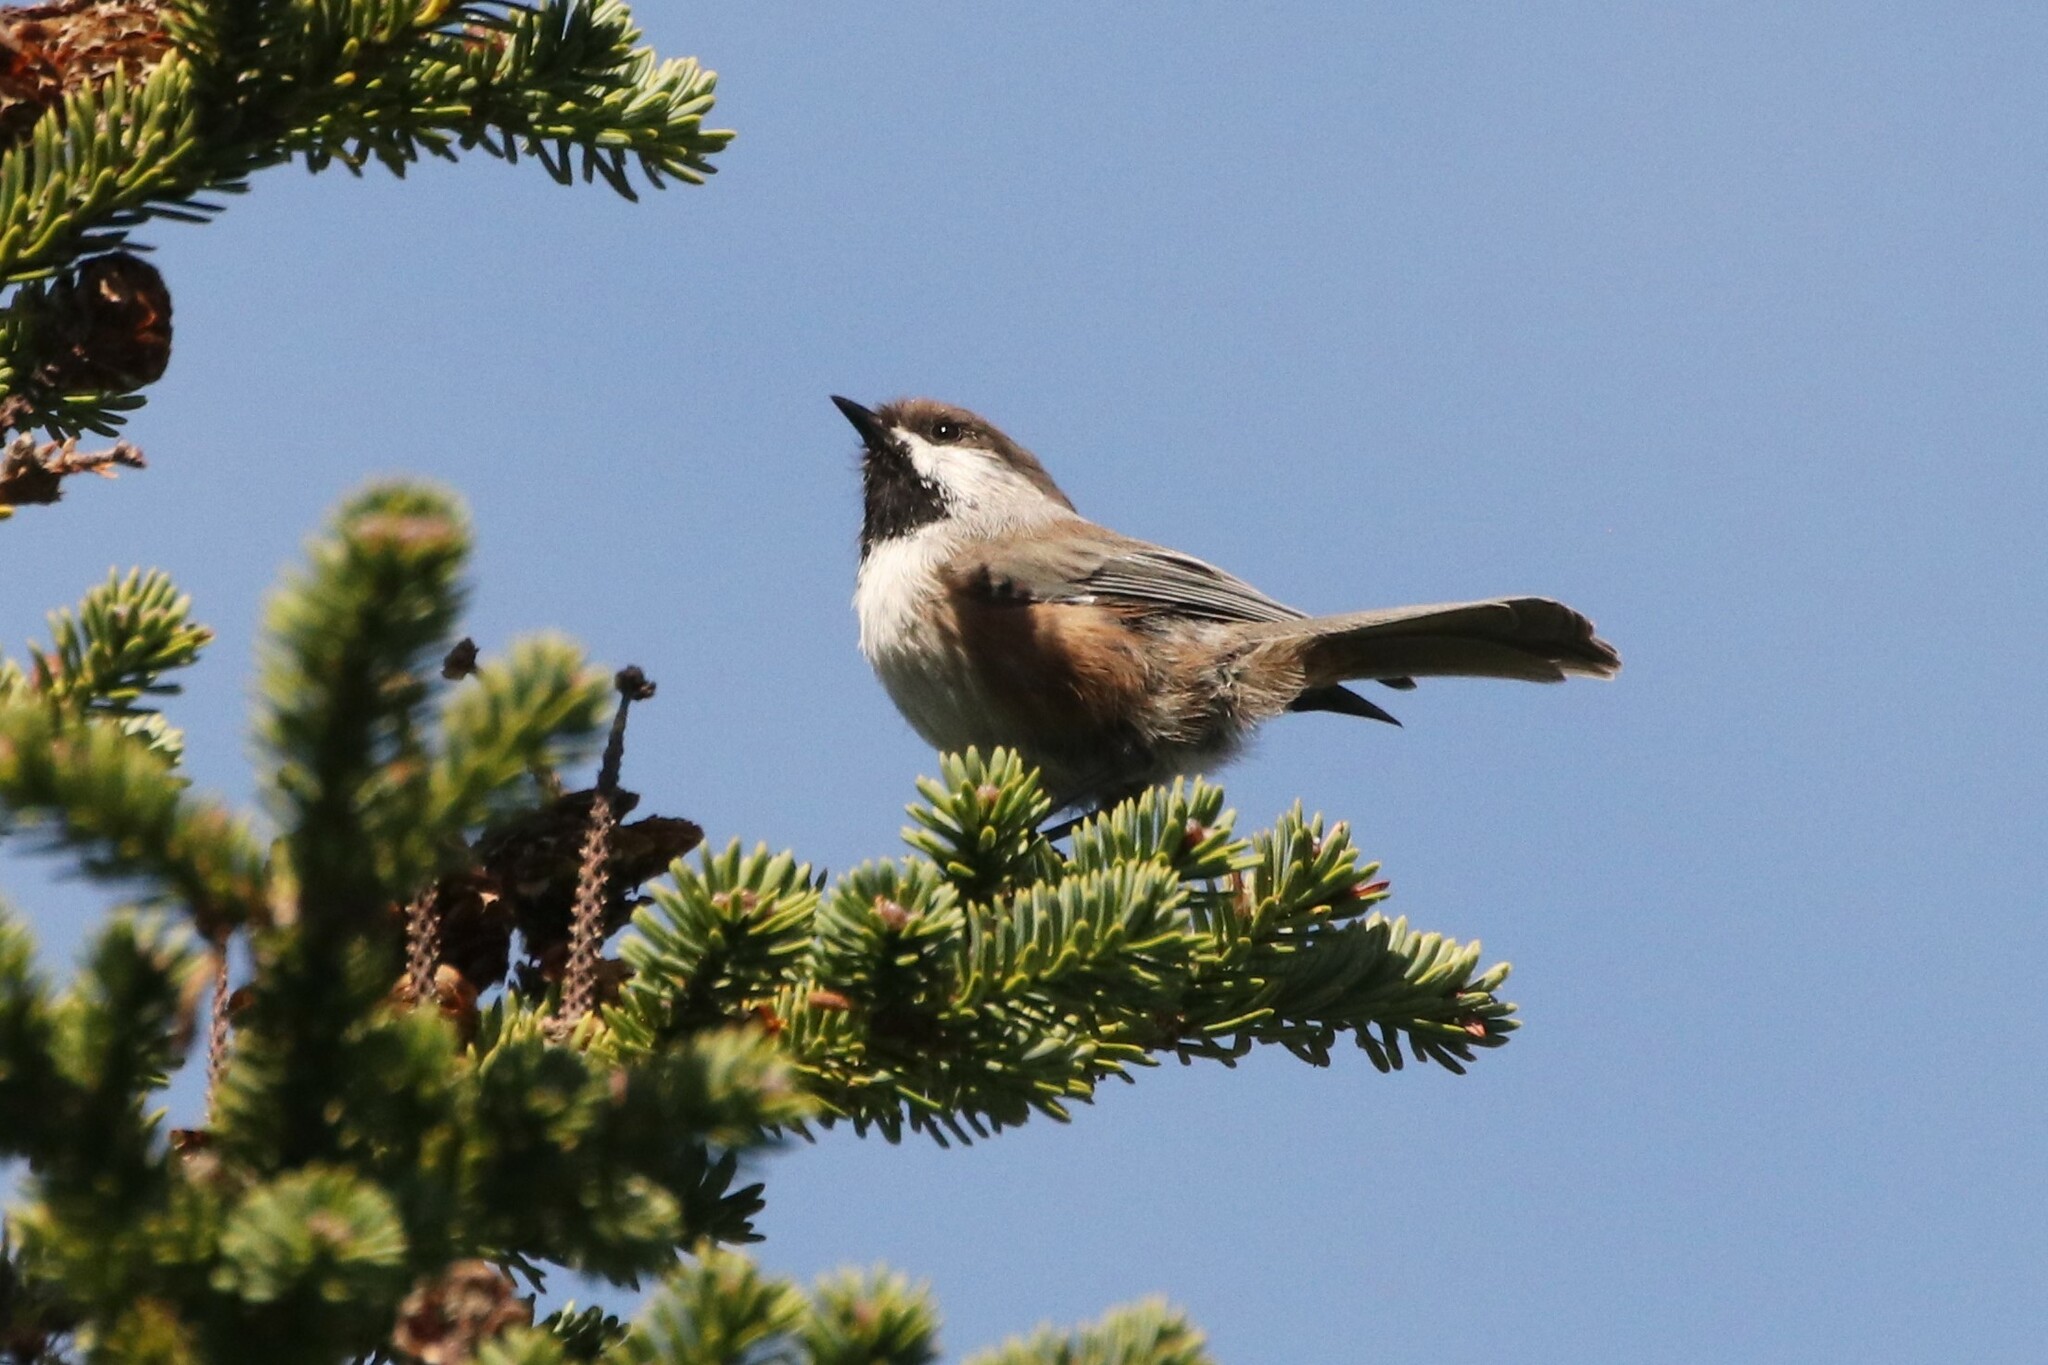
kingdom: Animalia
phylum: Chordata
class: Aves
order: Passeriformes
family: Paridae
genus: Poecile
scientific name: Poecile hudsonicus
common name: Boreal chickadee
